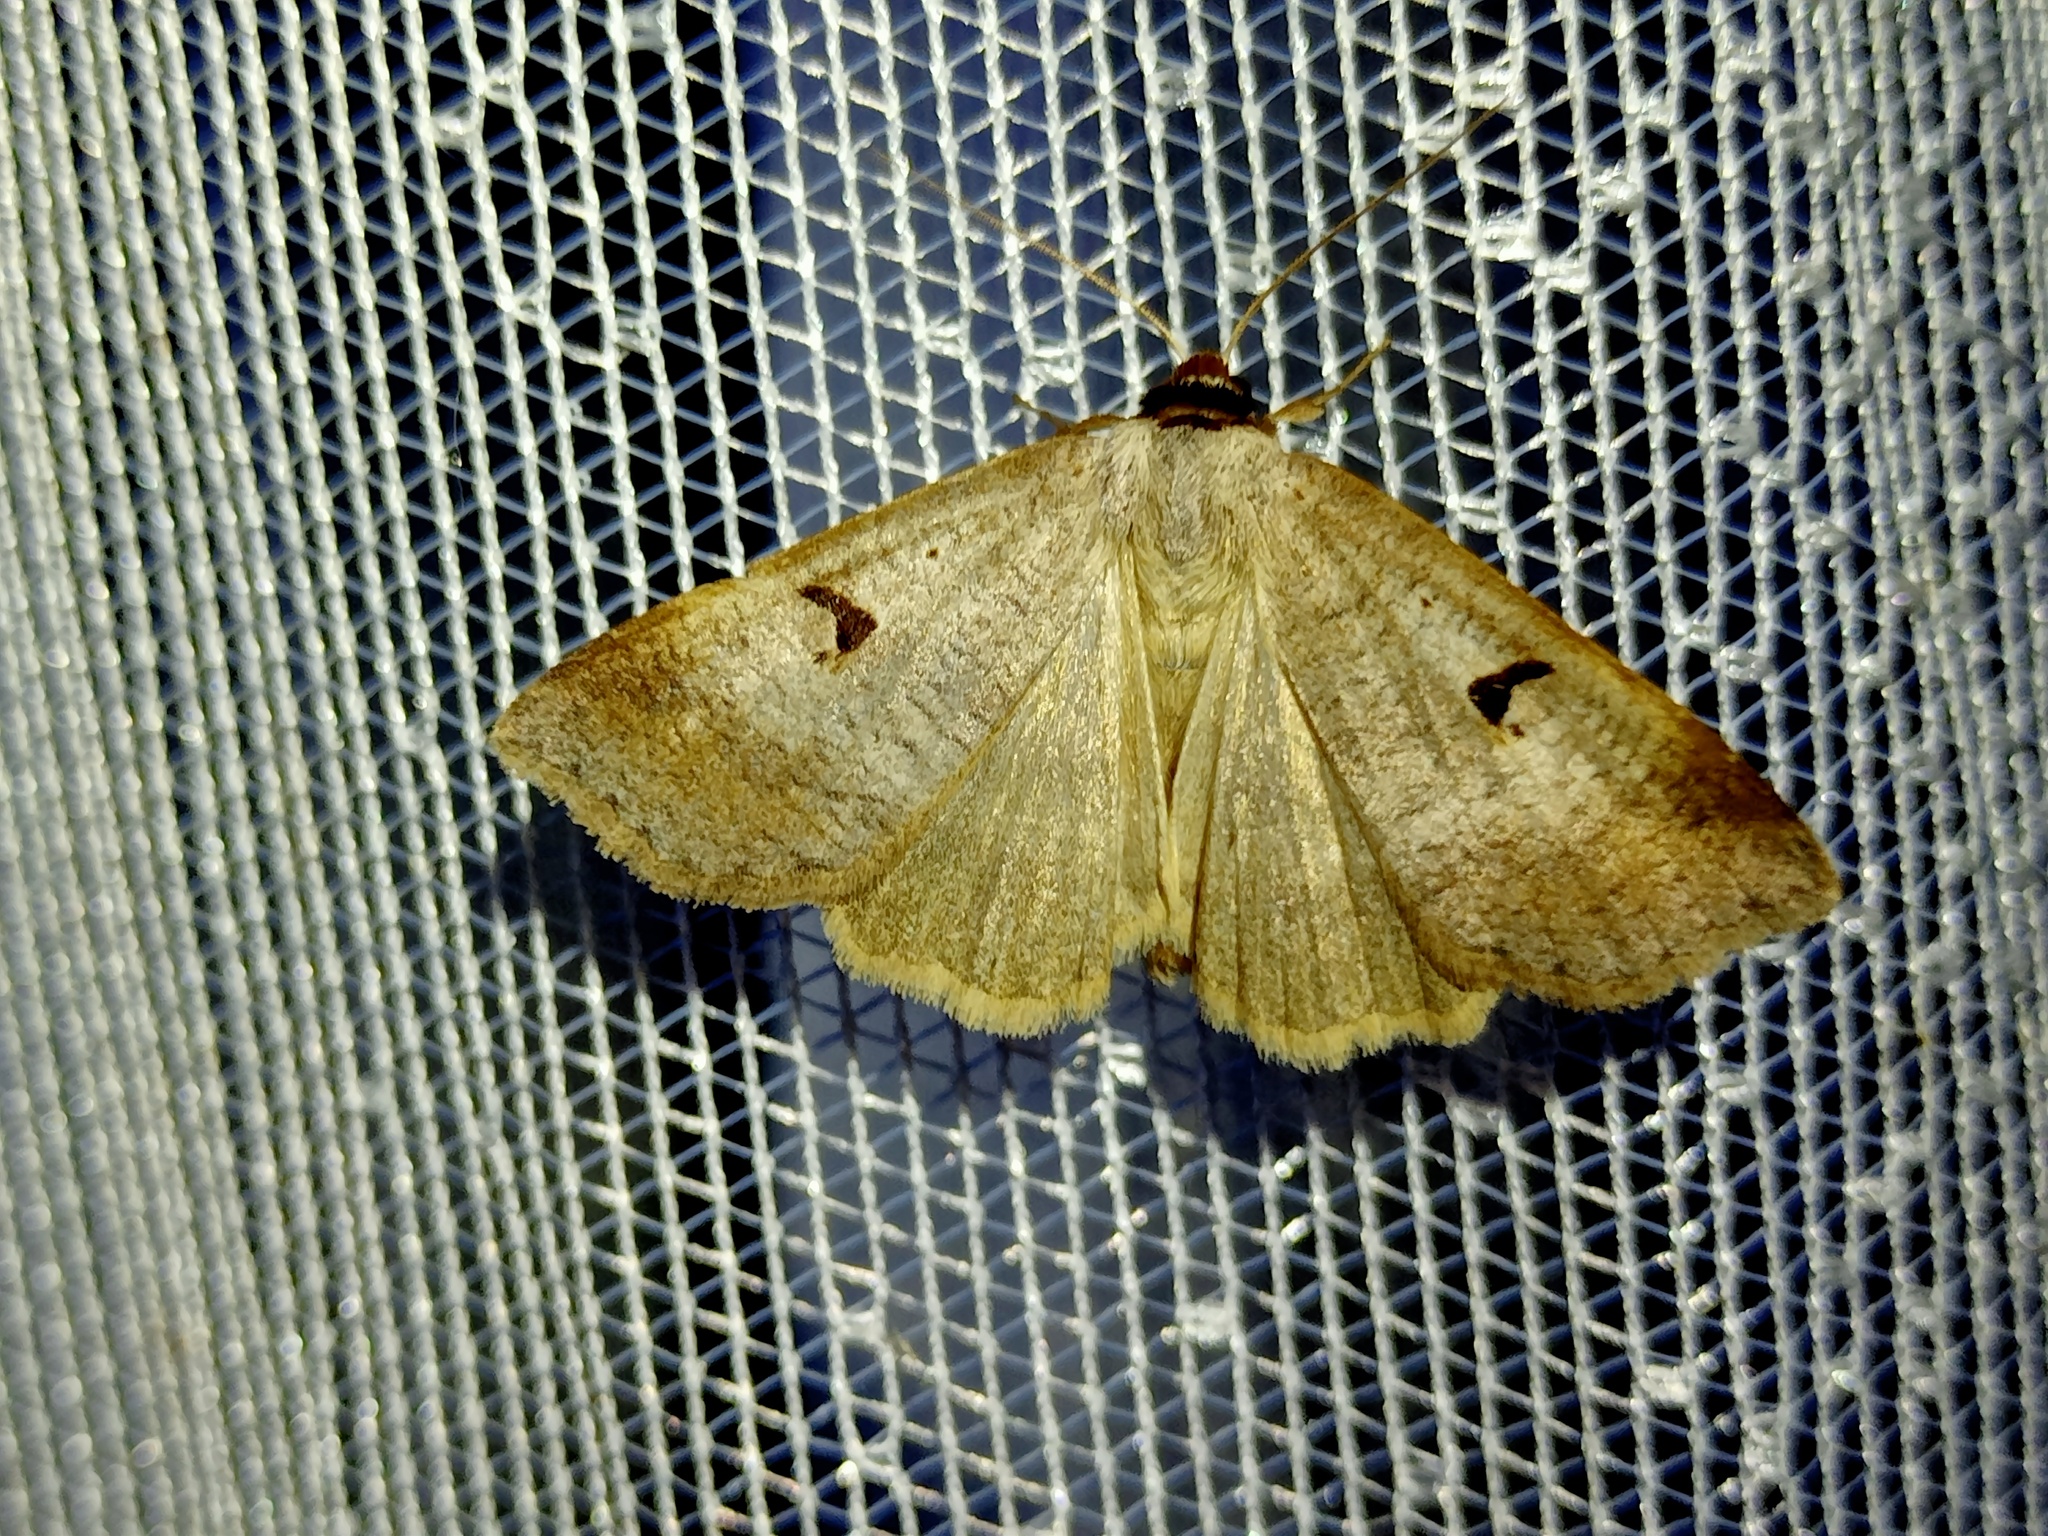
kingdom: Animalia
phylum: Arthropoda
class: Insecta
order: Lepidoptera
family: Erebidae
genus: Lygephila
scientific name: Lygephila pastinum
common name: Blackneck
